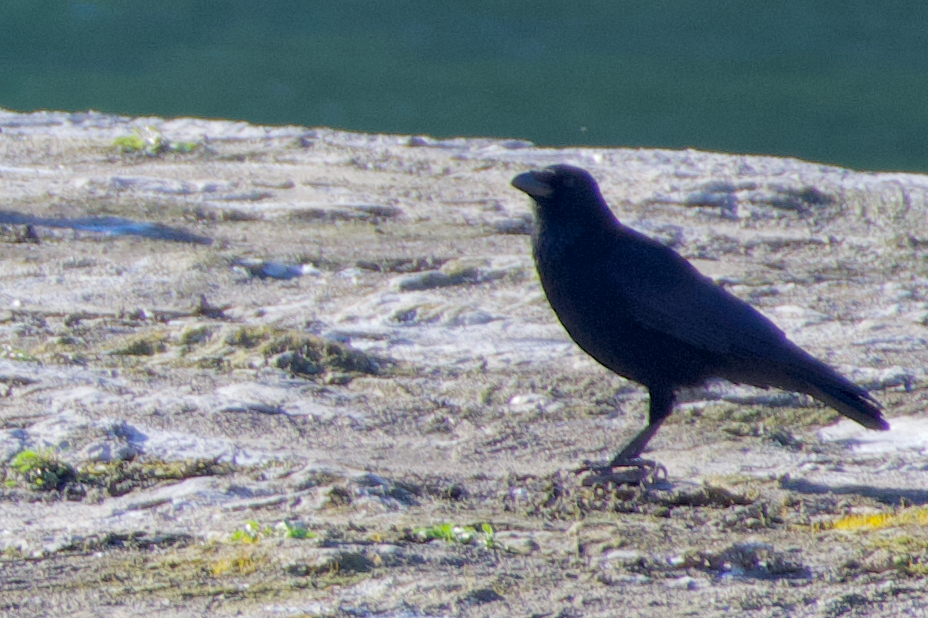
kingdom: Animalia
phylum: Chordata
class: Aves
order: Passeriformes
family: Corvidae
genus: Corvus
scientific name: Corvus corone
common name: Carrion crow
